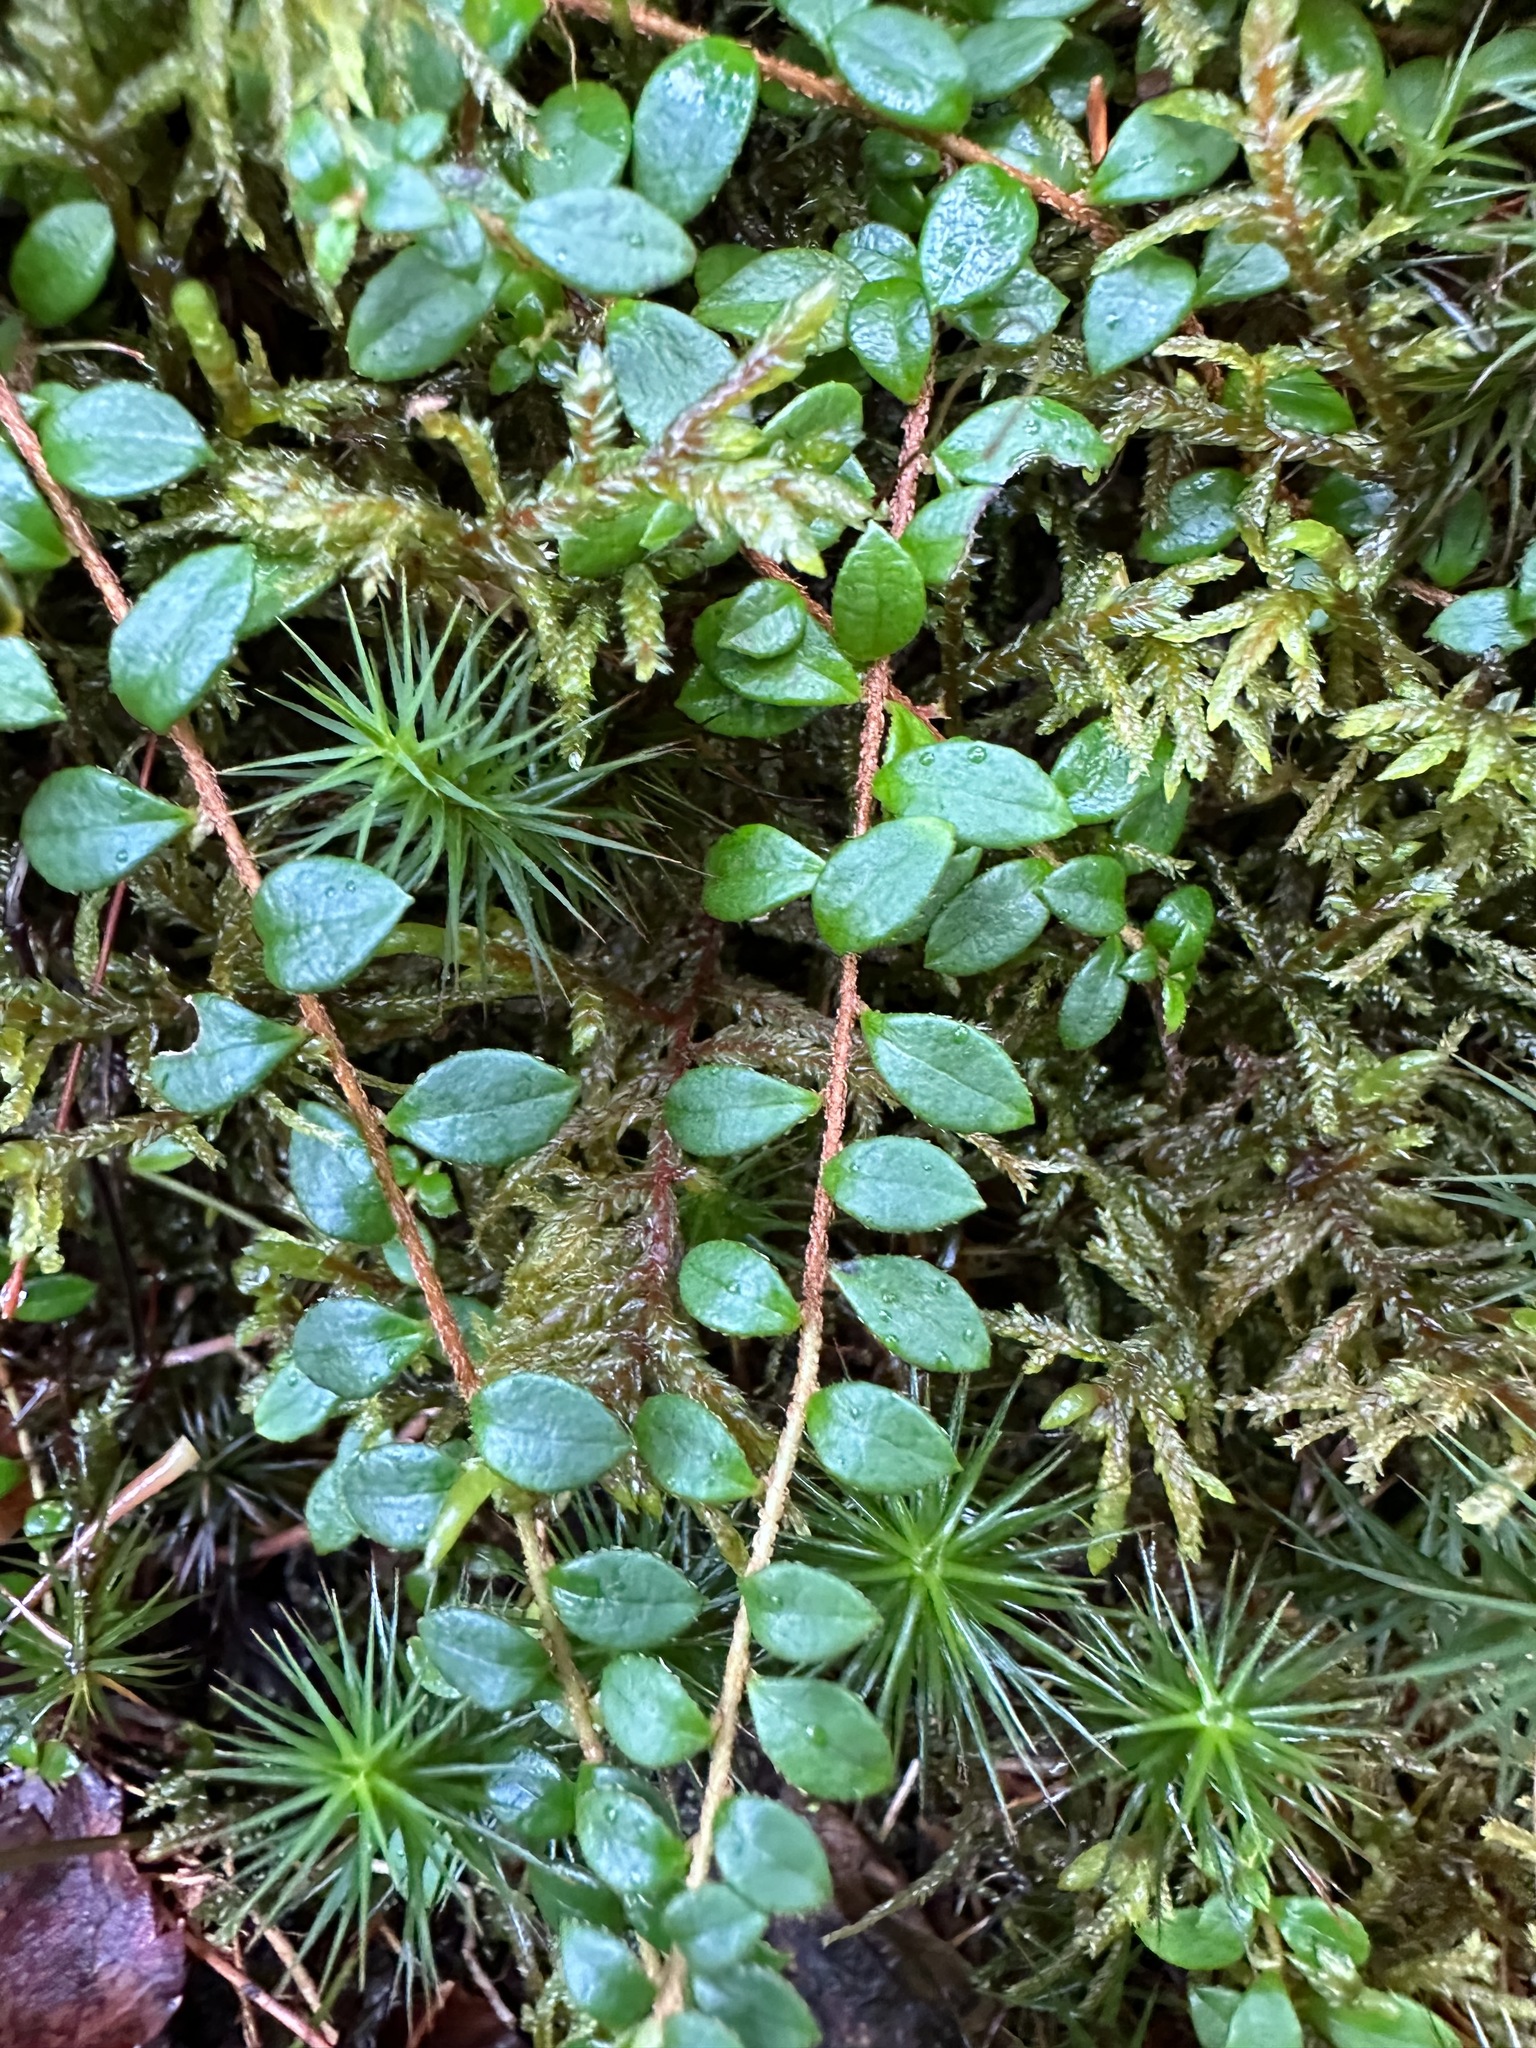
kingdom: Plantae
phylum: Tracheophyta
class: Magnoliopsida
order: Ericales
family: Ericaceae
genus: Gaultheria
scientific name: Gaultheria hispidula
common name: Cancer wintergreen
